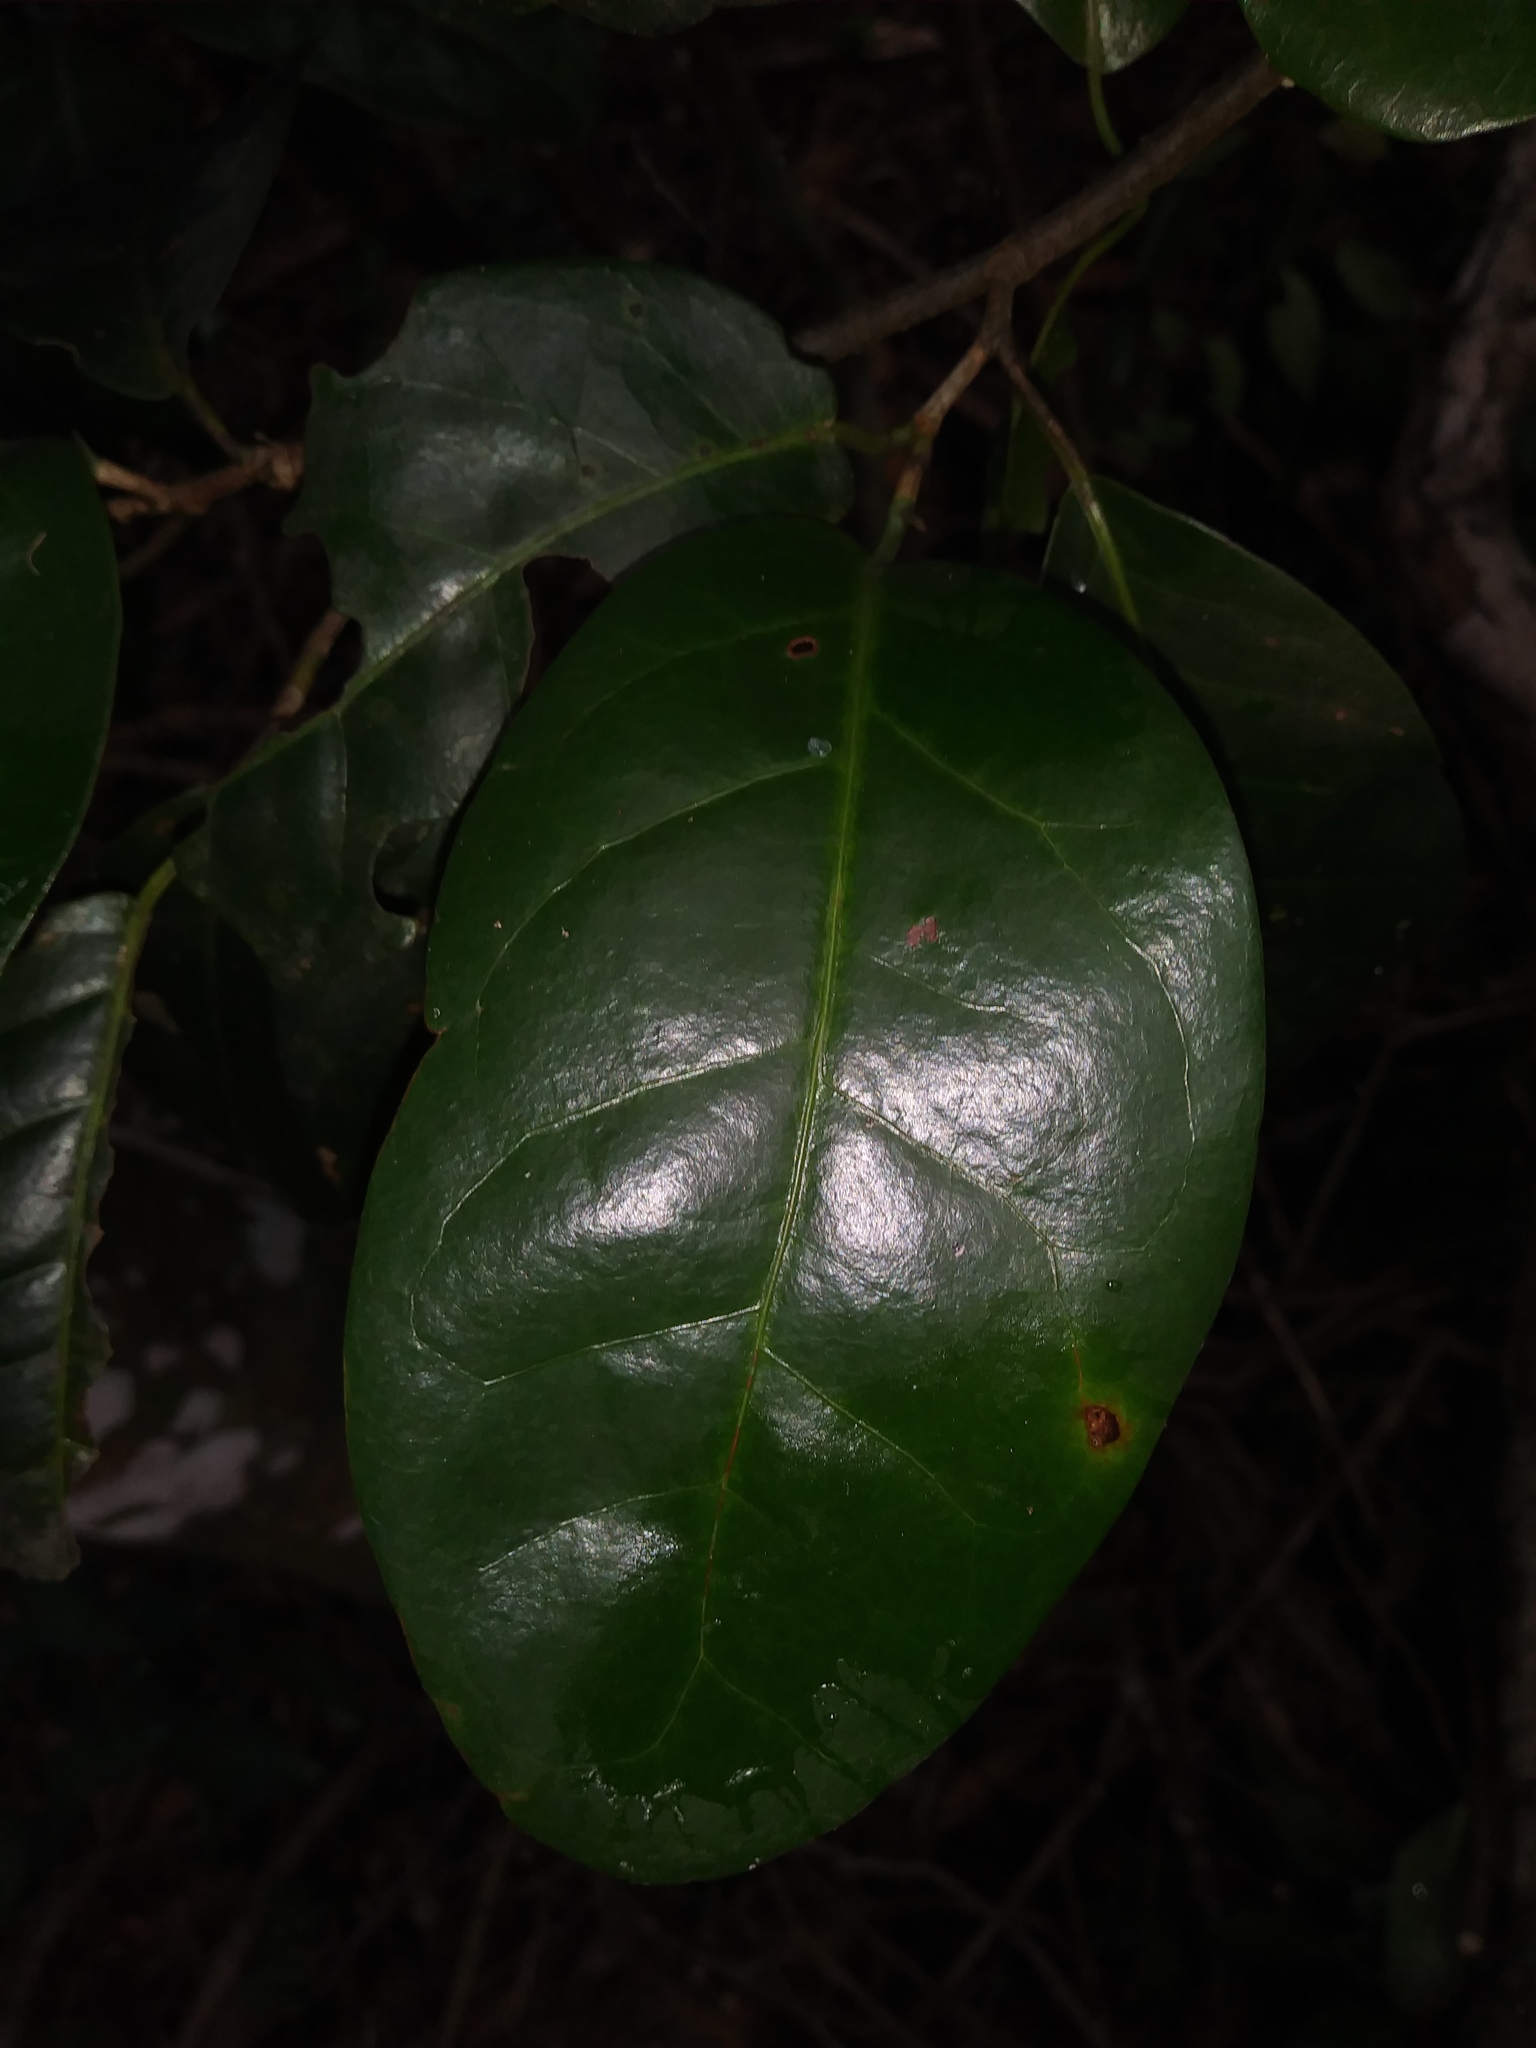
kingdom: Plantae
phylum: Tracheophyta
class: Magnoliopsida
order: Caryophyllales
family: Polygonaceae
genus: Coccoloba
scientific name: Coccoloba diversifolia
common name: Pigeon-plum
